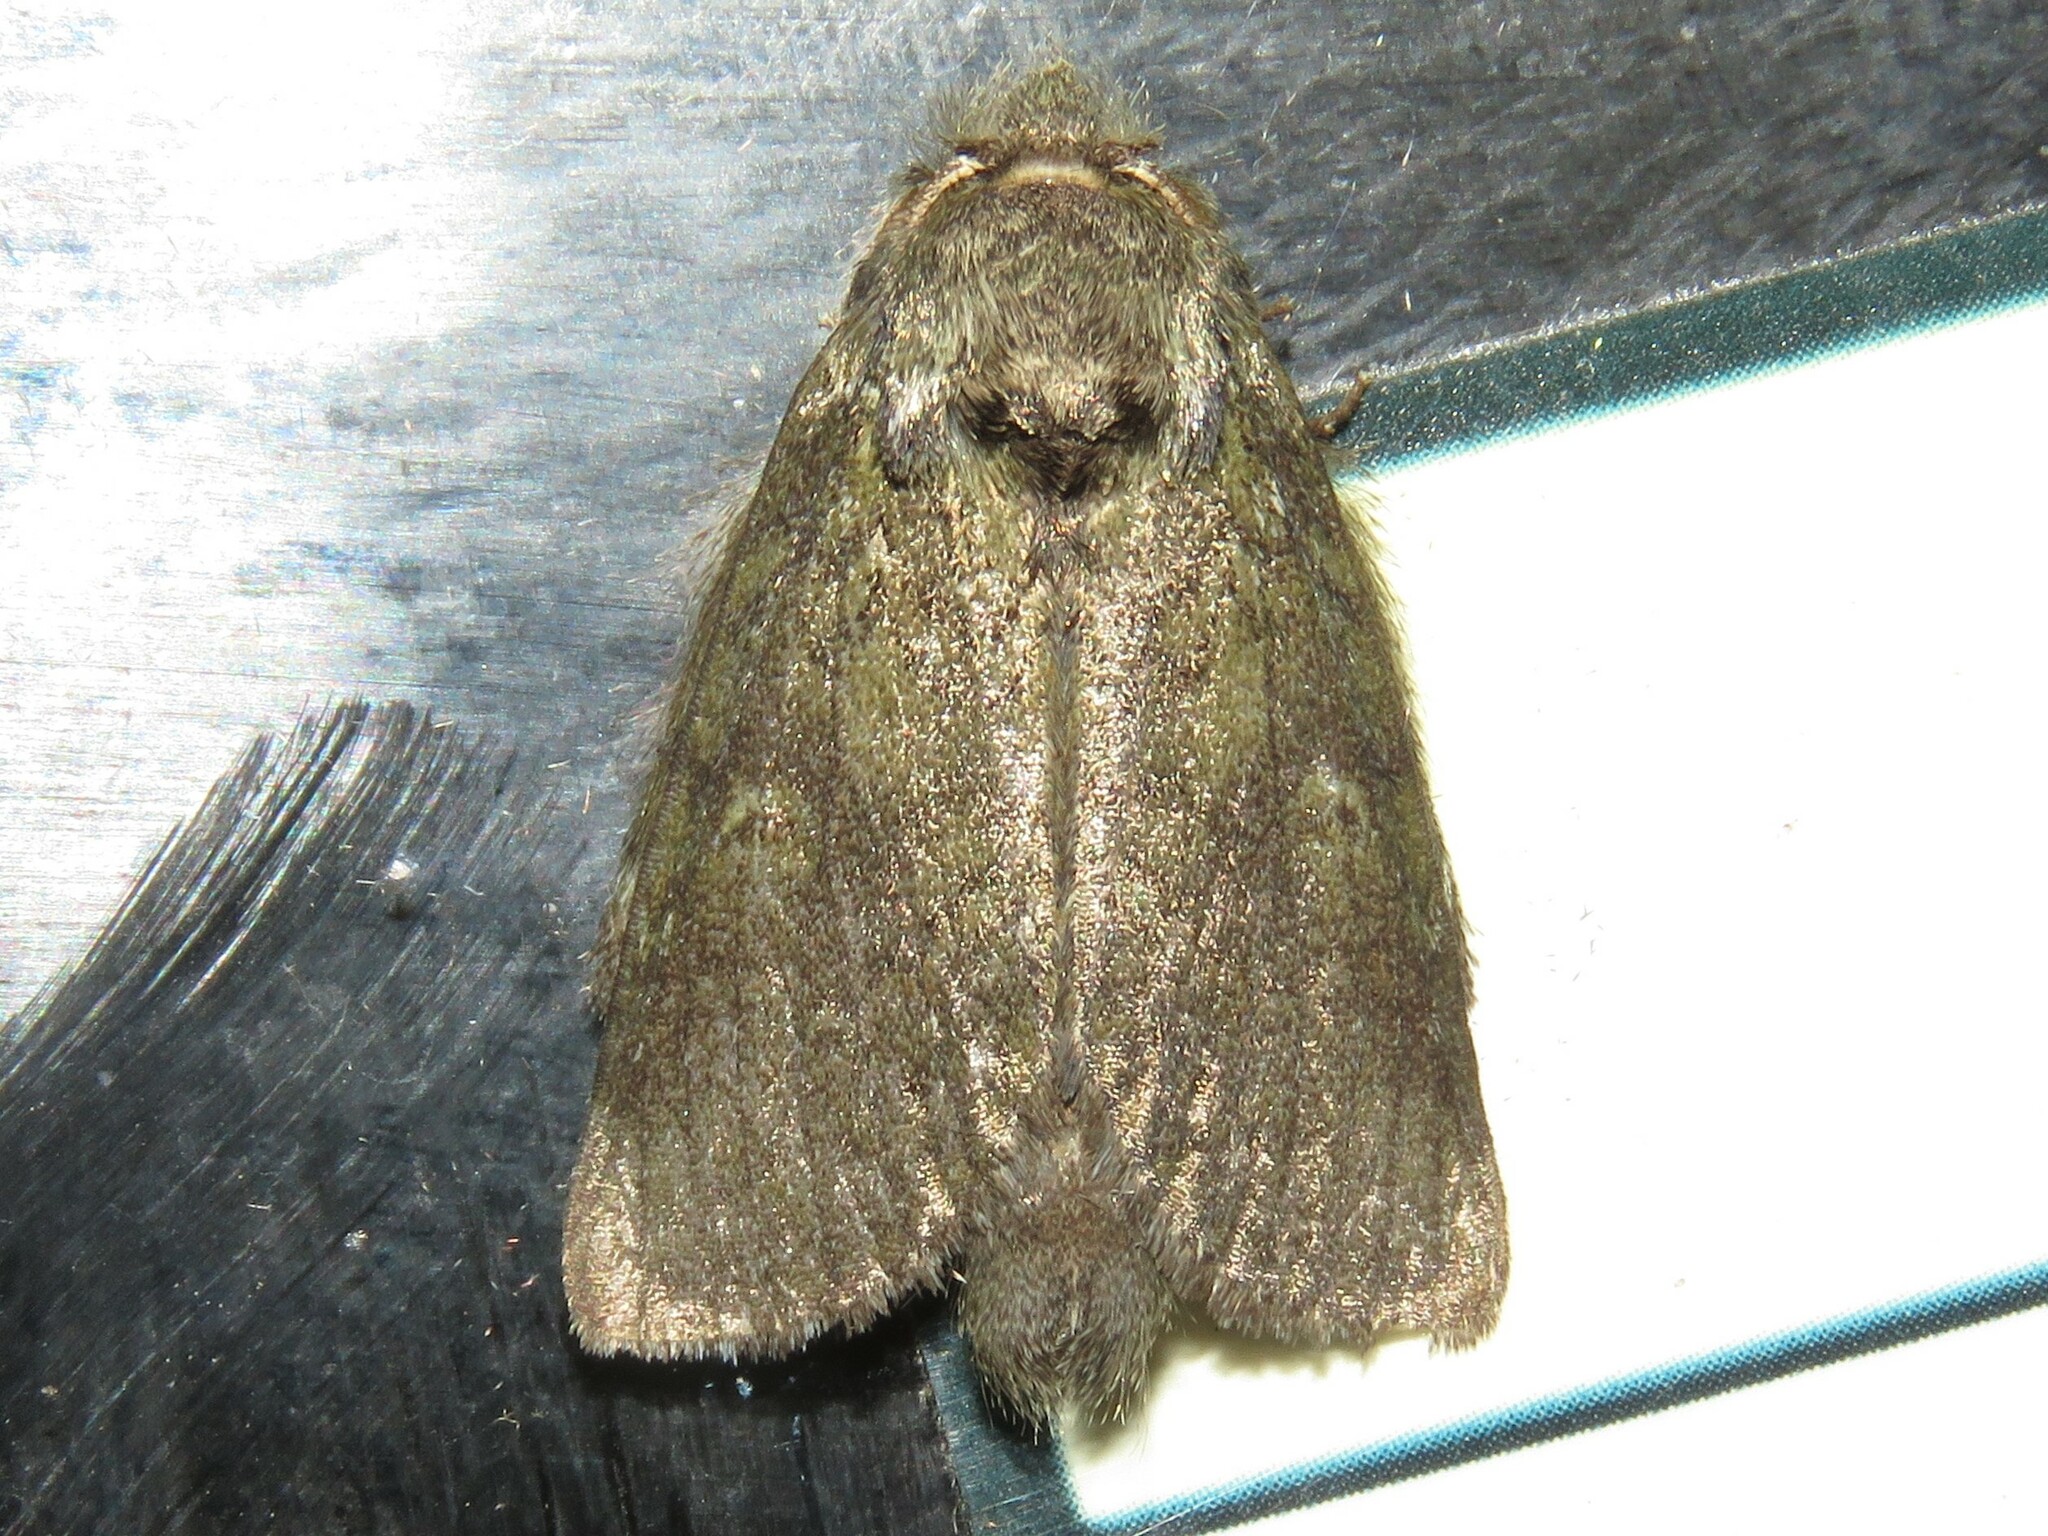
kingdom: Animalia
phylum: Arthropoda
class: Insecta
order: Lepidoptera
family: Notodontidae
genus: Disphragis
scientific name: Disphragis Cecrita guttivitta
